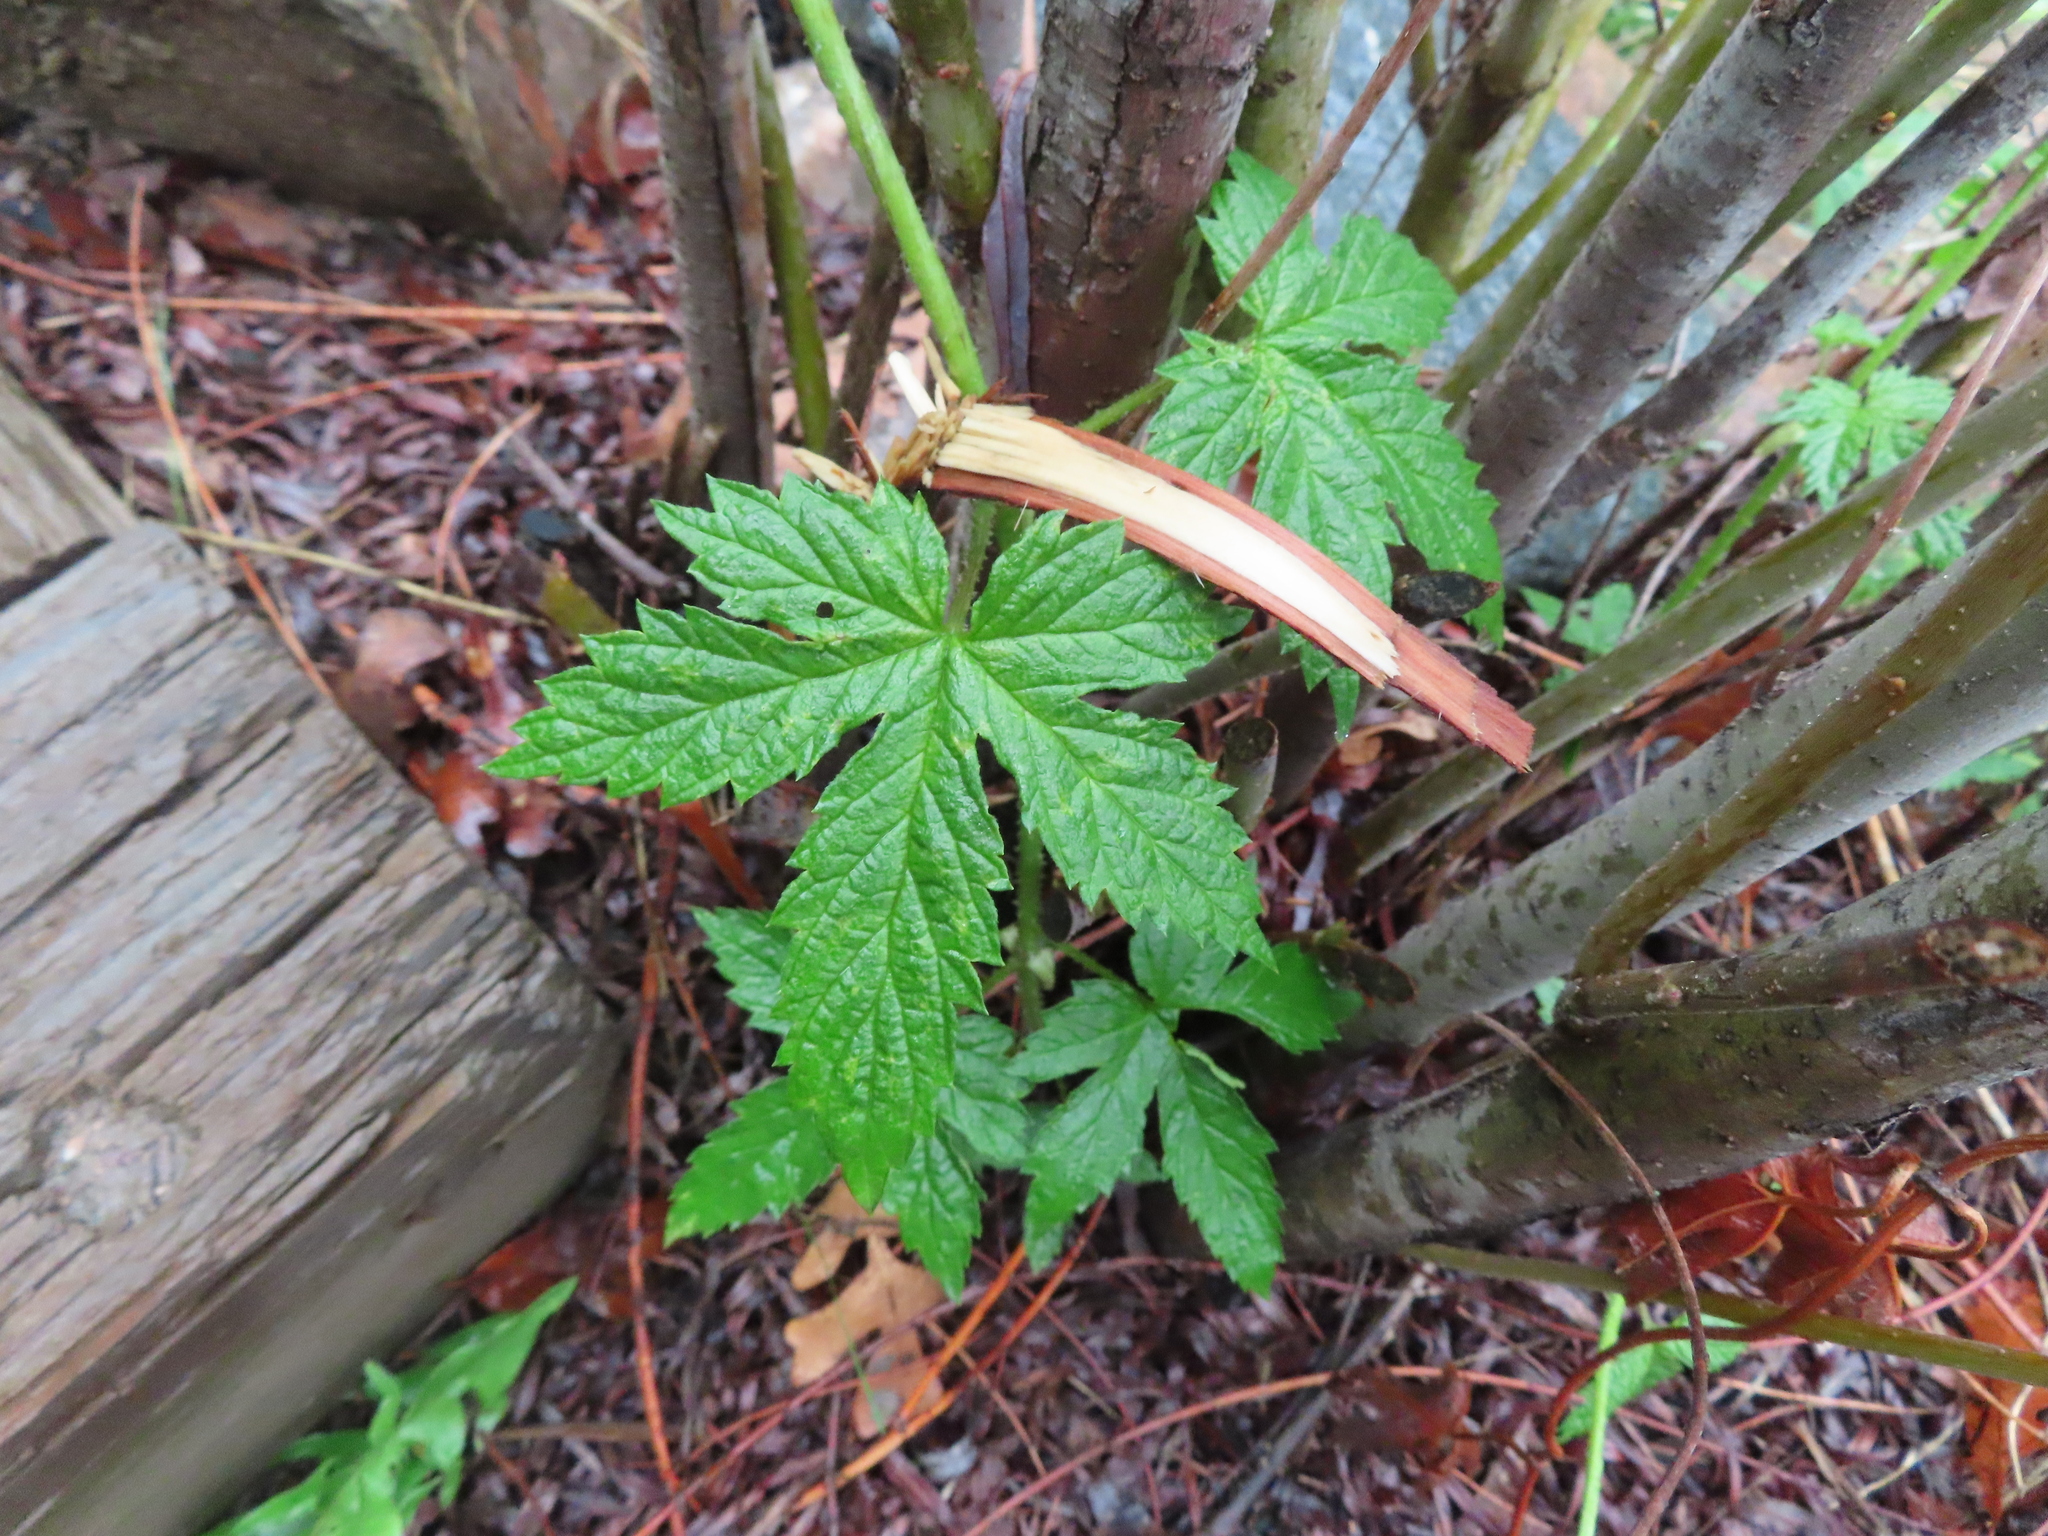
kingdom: Plantae
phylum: Tracheophyta
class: Magnoliopsida
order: Rosales
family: Cannabaceae
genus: Humulus
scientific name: Humulus lupulus
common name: Hop
